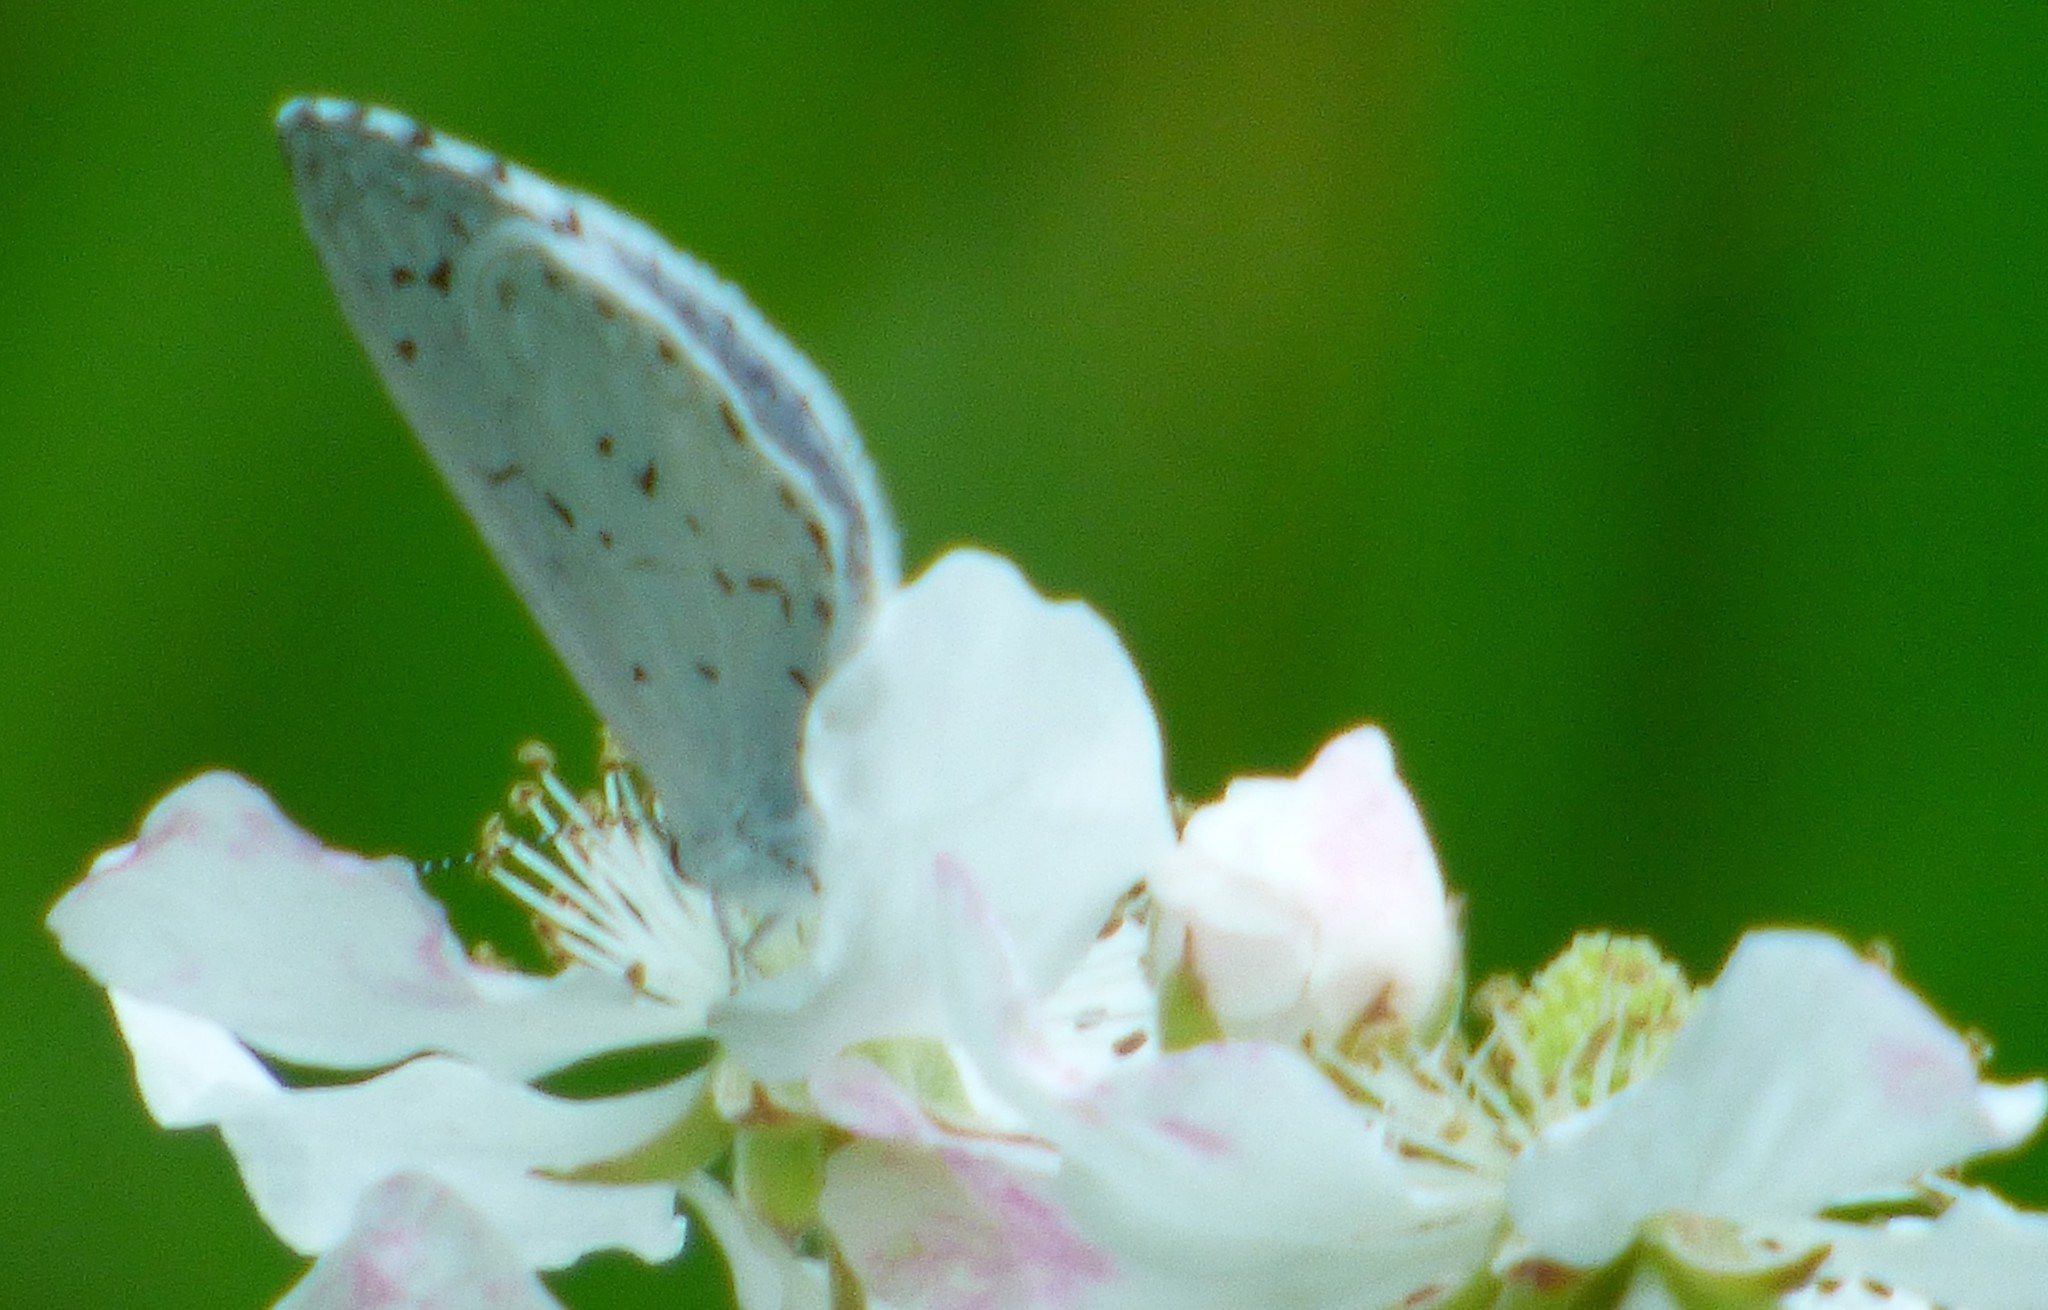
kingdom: Animalia
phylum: Arthropoda
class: Insecta
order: Lepidoptera
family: Lycaenidae
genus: Cyaniris
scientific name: Cyaniris neglecta
